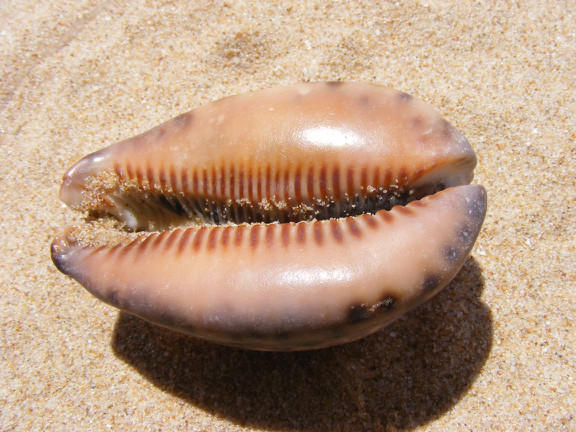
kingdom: Animalia
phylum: Mollusca
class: Gastropoda
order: Littorinimorpha
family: Cypraeidae
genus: Mauritia
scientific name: Mauritia arabica
